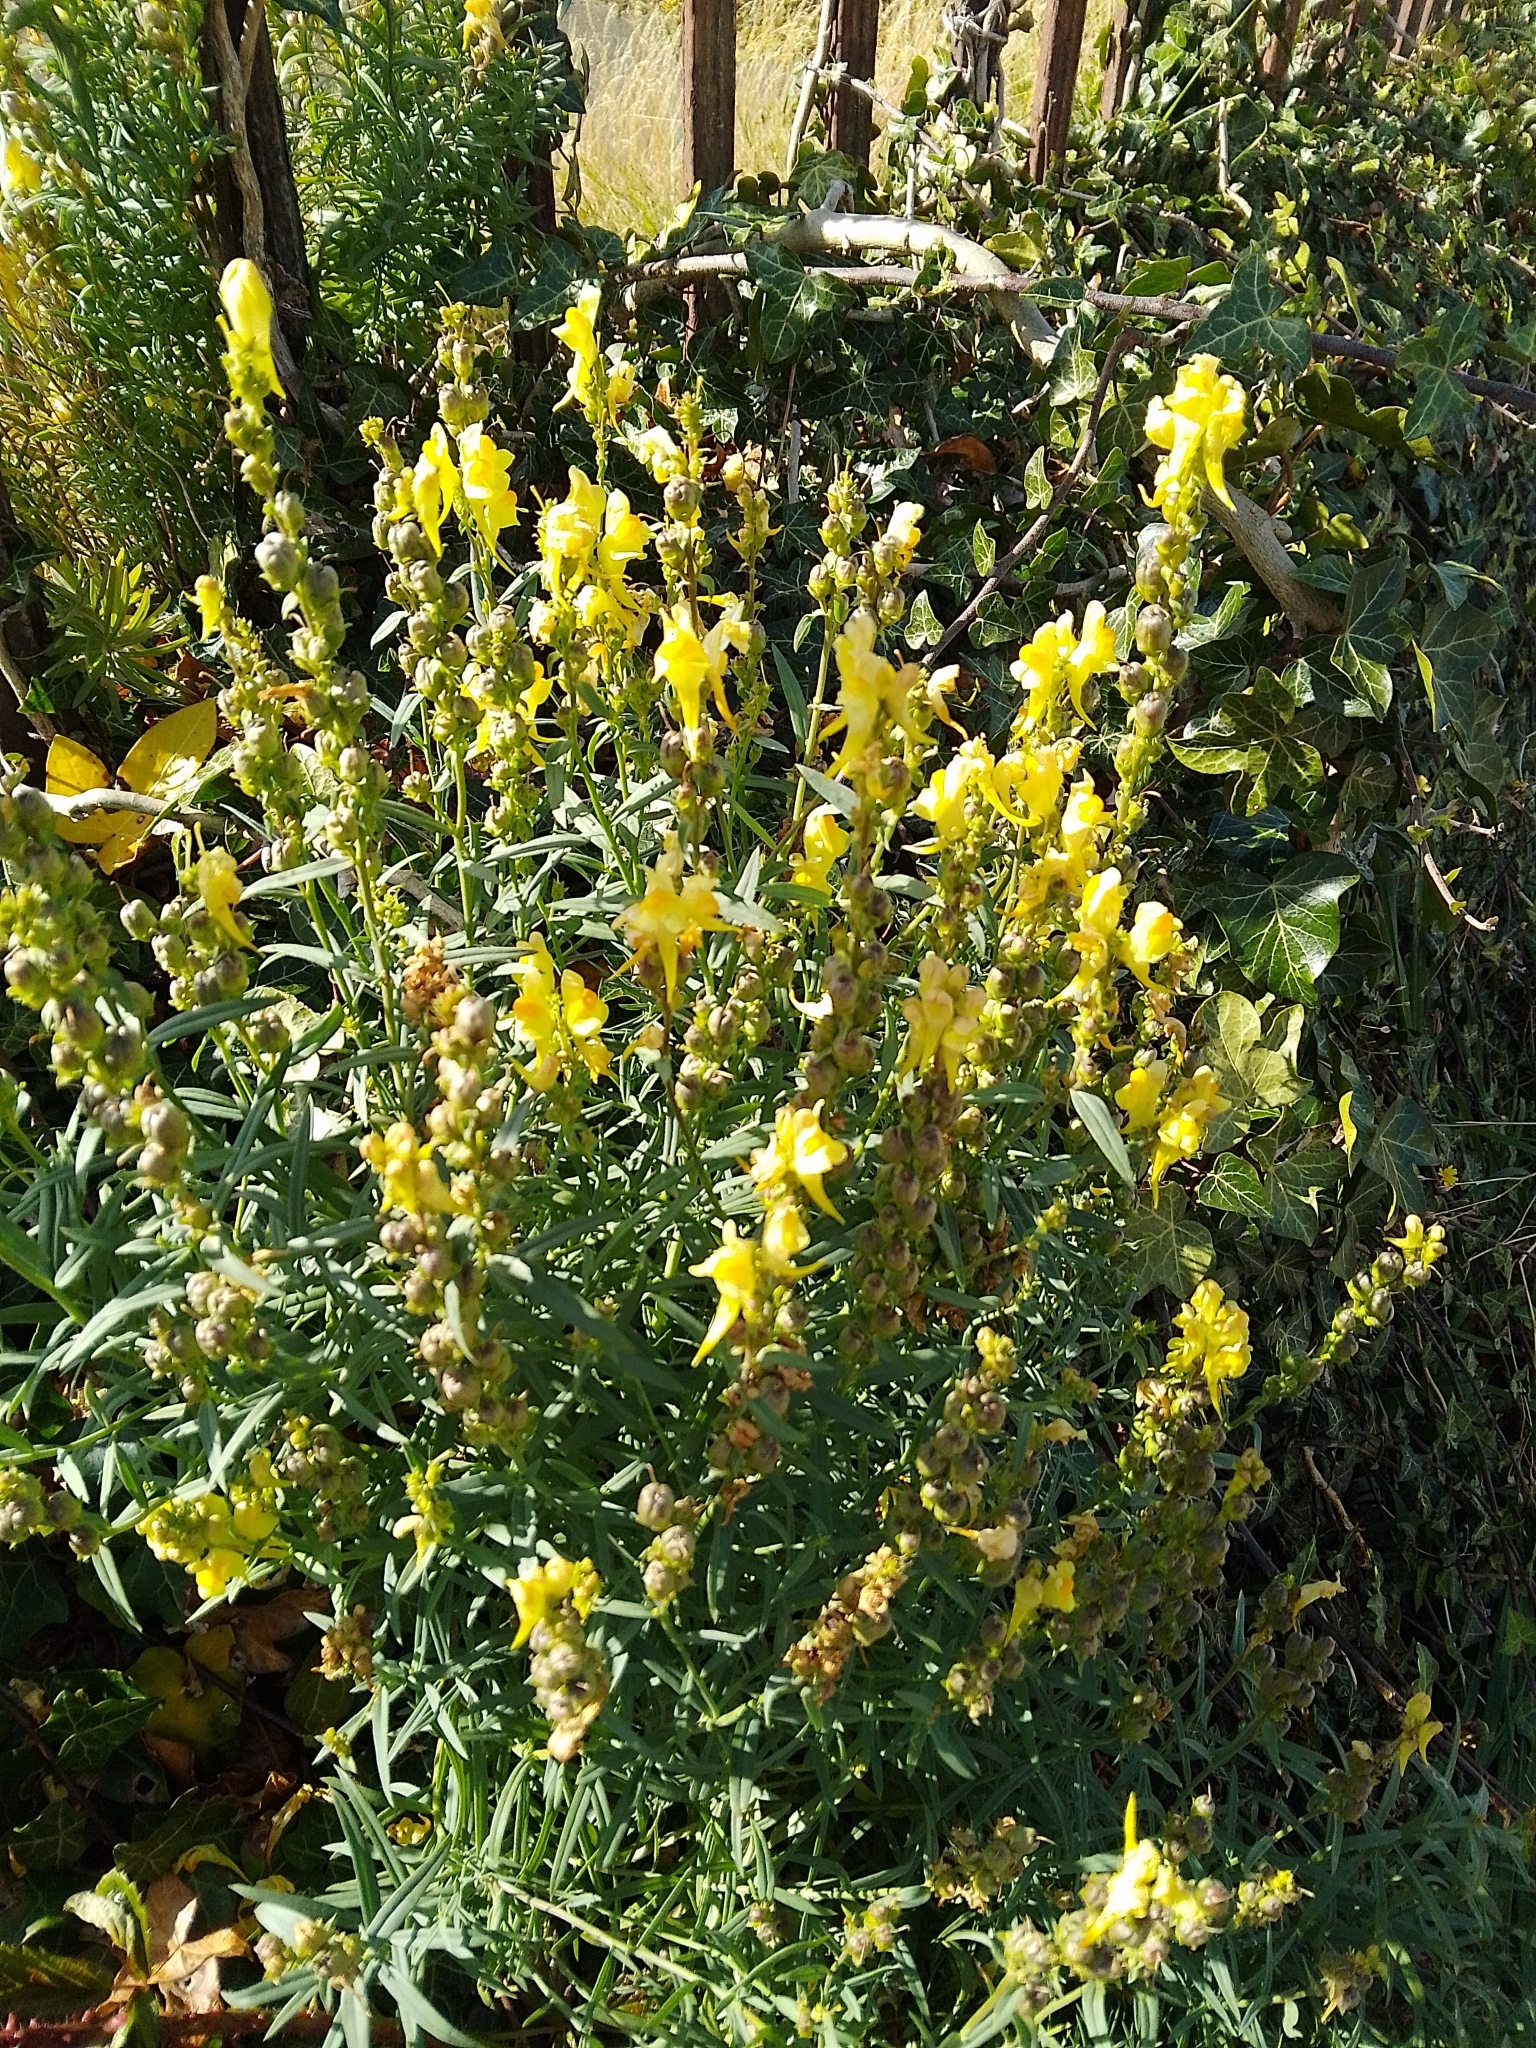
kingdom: Plantae
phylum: Tracheophyta
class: Magnoliopsida
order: Lamiales
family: Plantaginaceae
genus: Linaria
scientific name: Linaria vulgaris
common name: Butter and eggs
